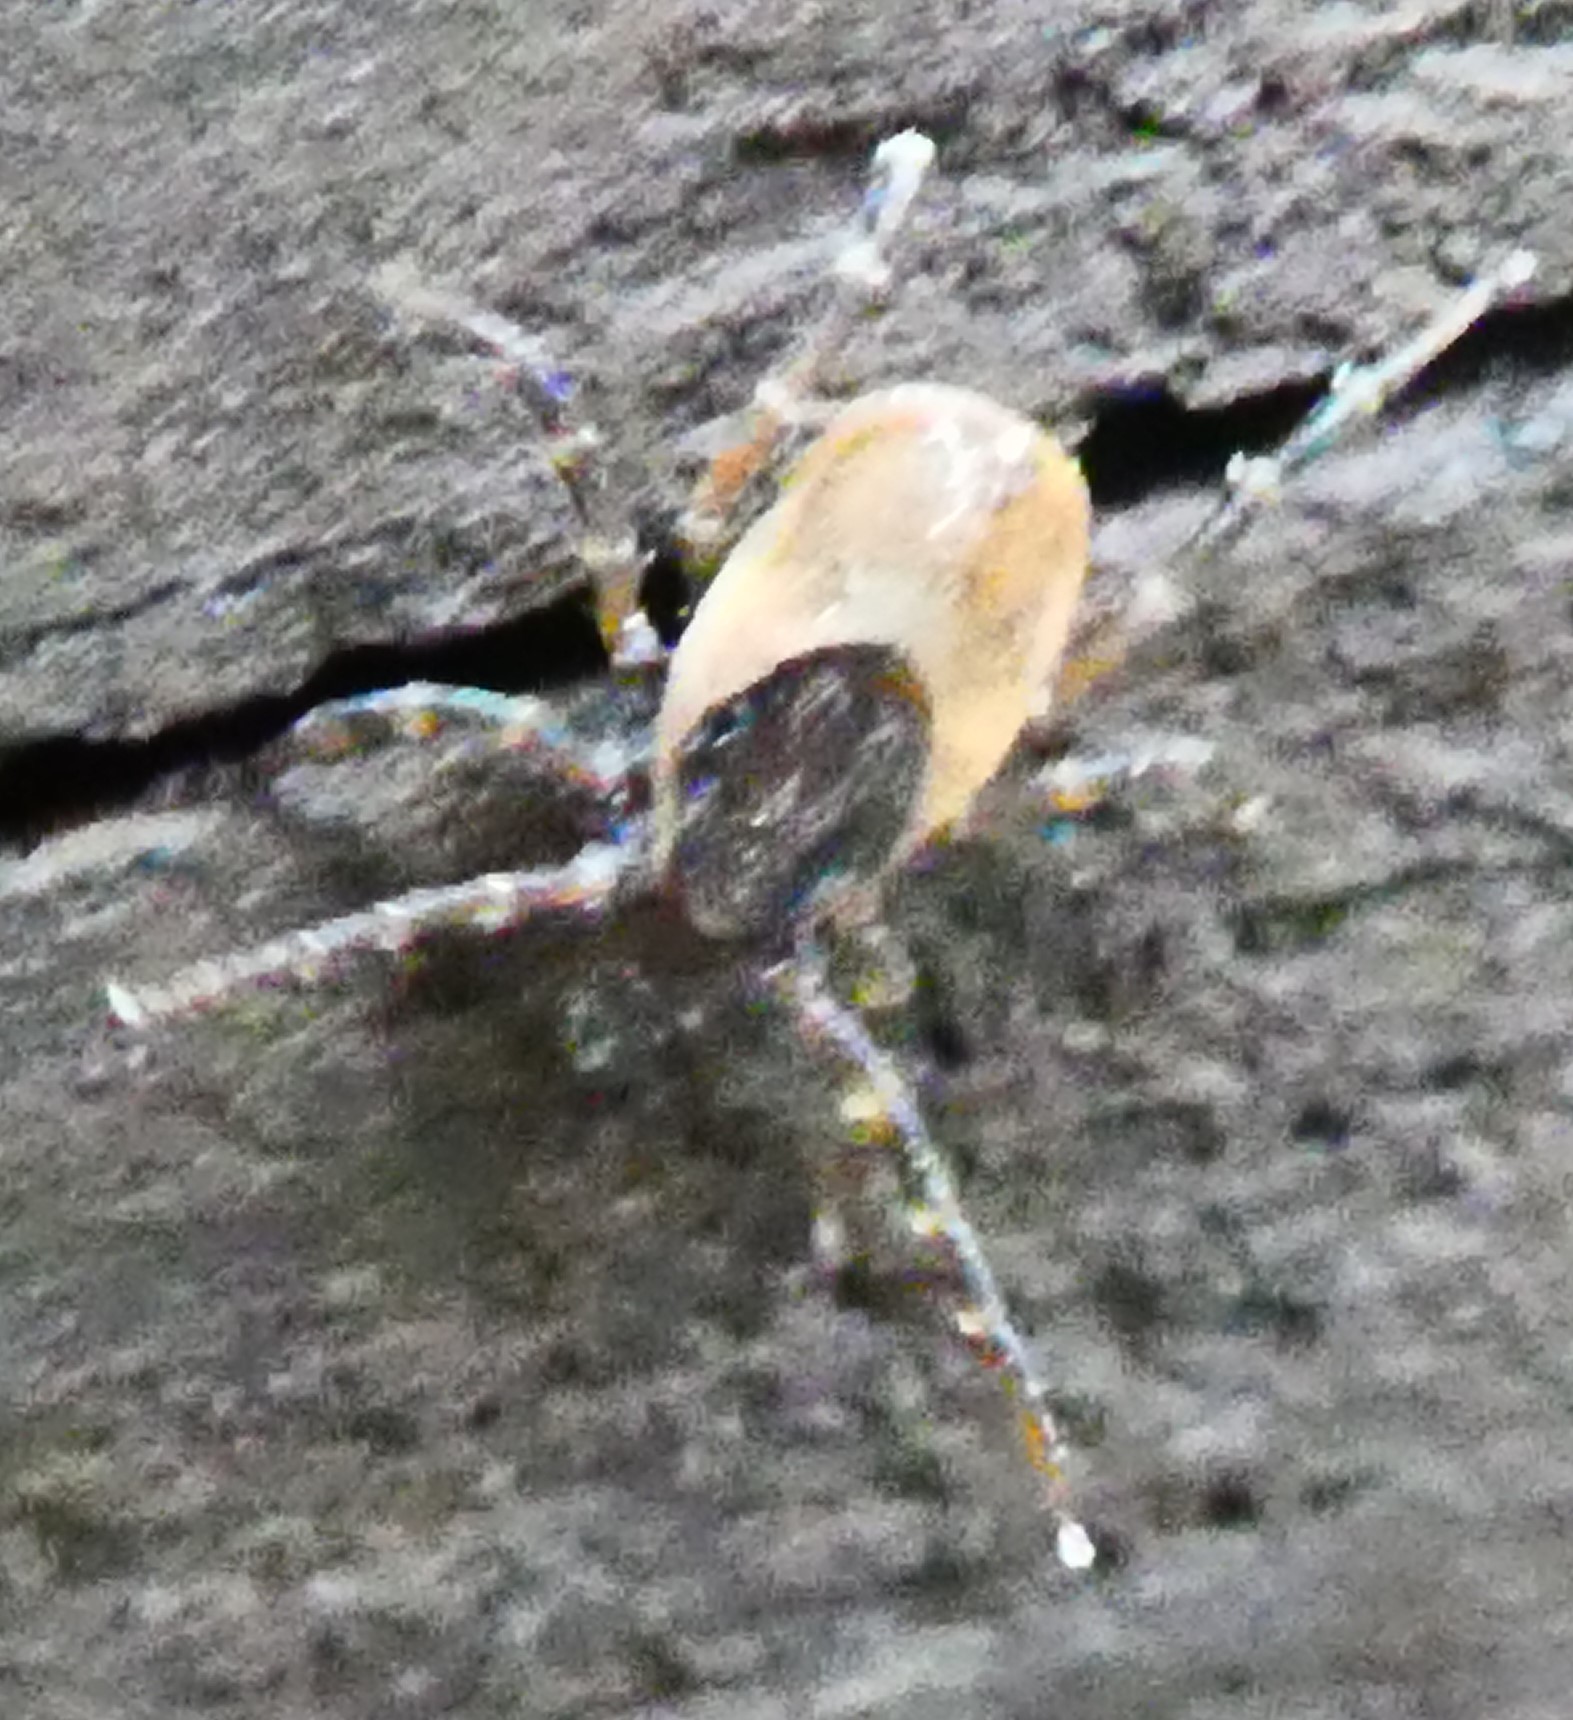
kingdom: Animalia
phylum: Arthropoda
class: Arachnida
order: Ixodida
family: Ixodidae
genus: Ixodes
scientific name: Ixodes frontalis
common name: Passerine tick
